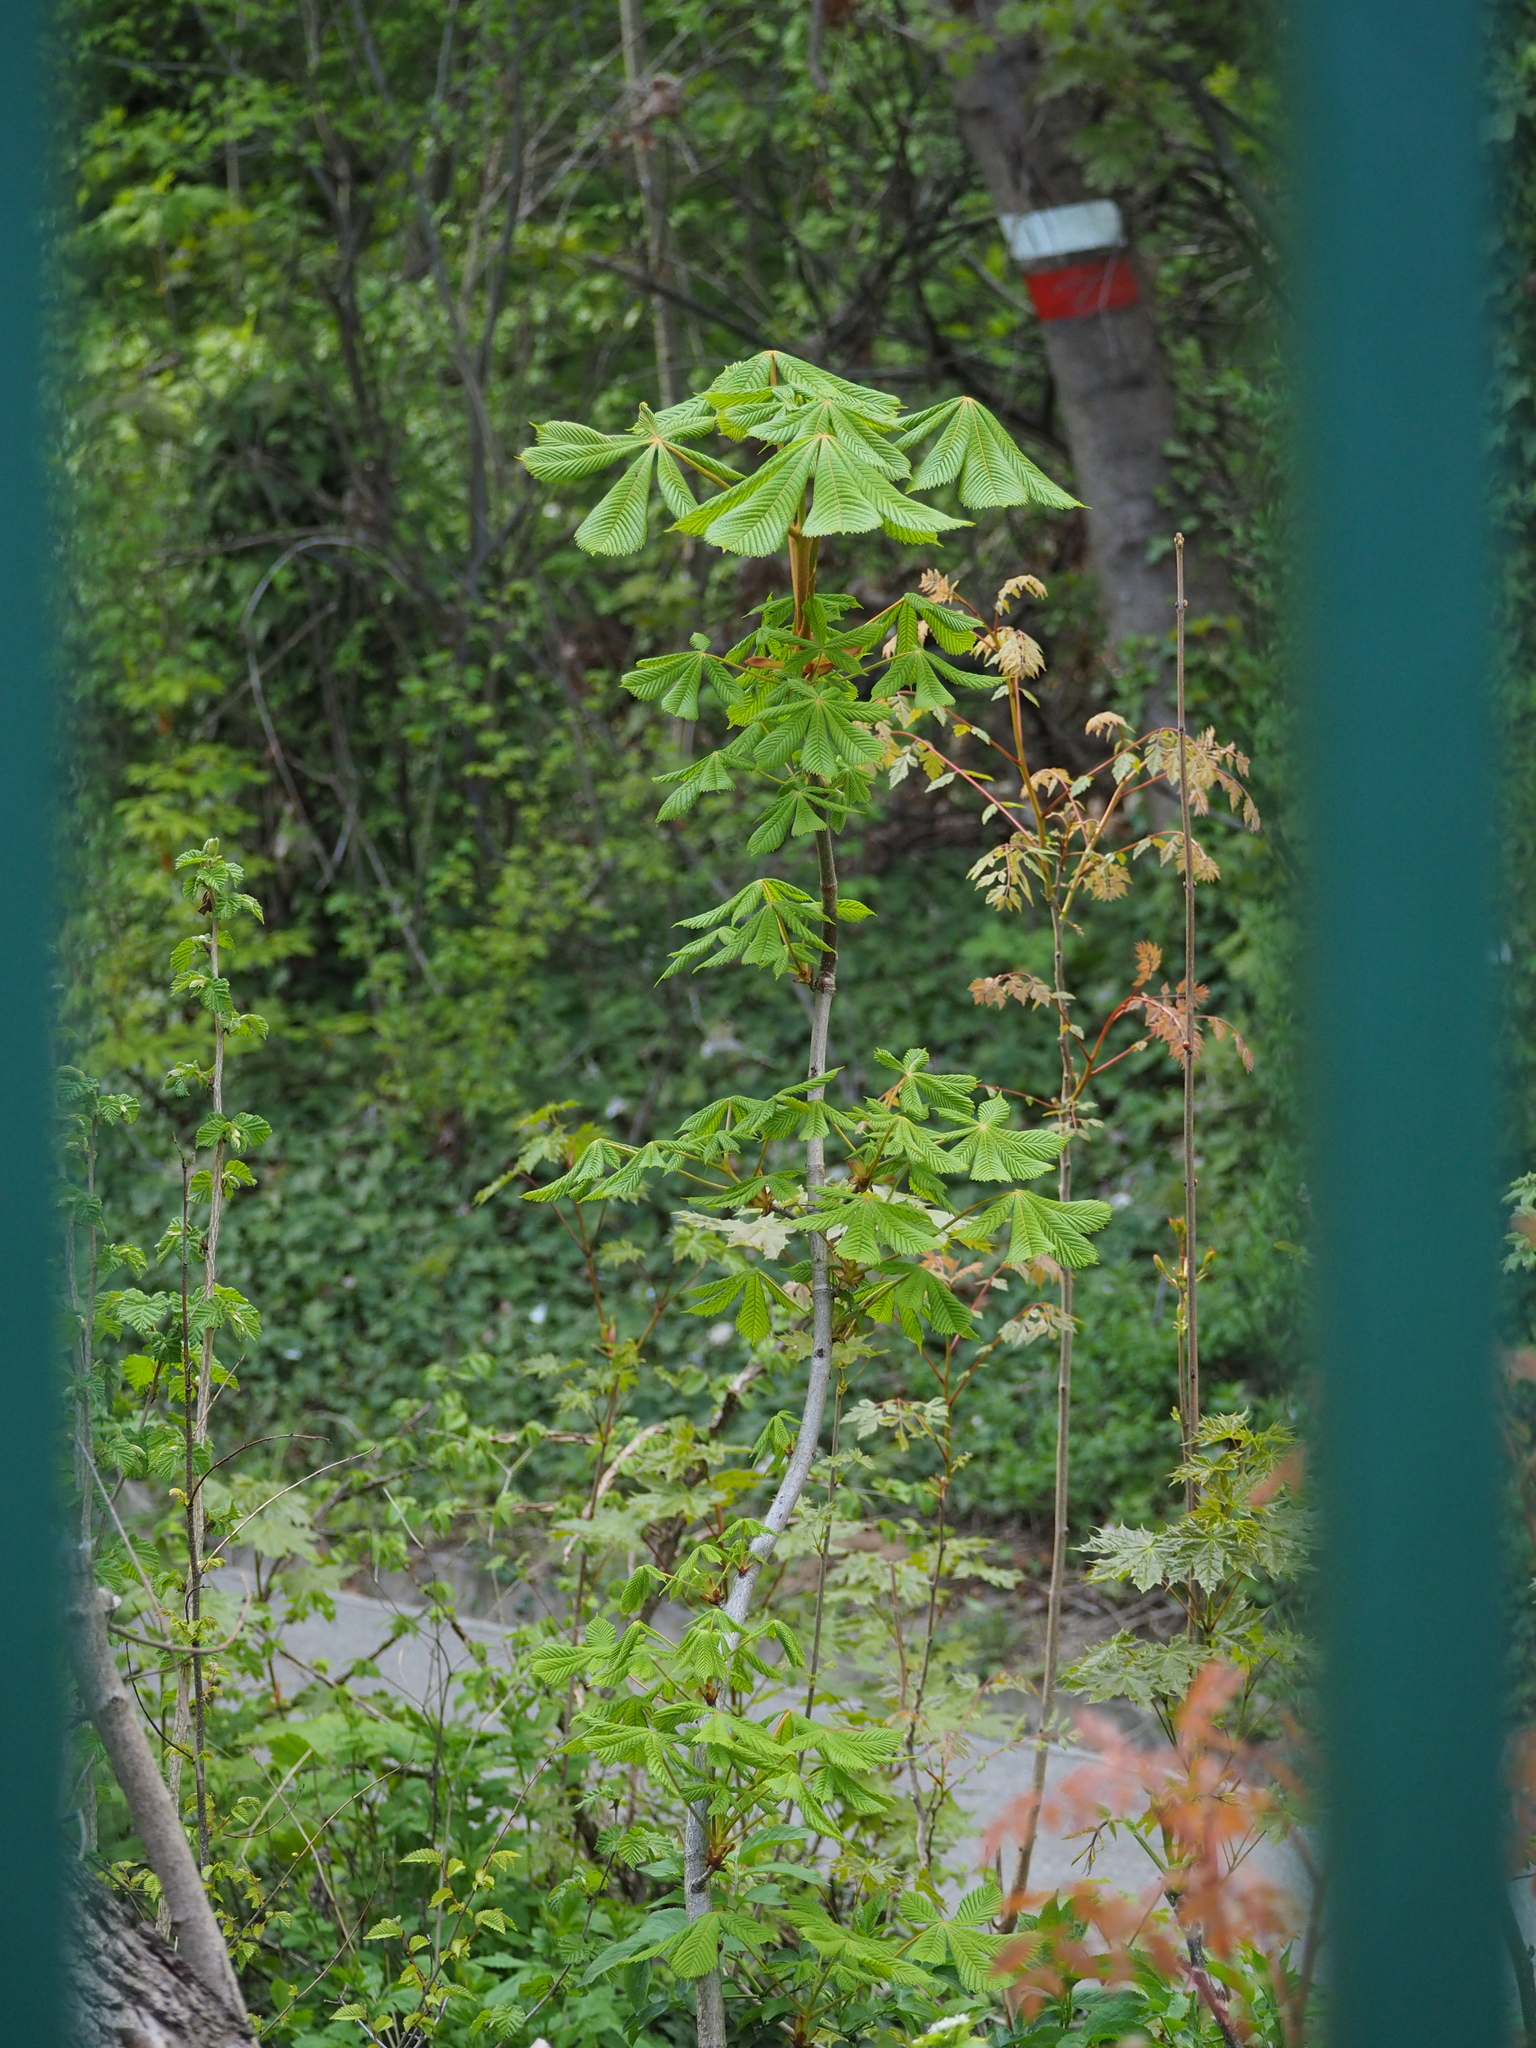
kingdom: Plantae
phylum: Tracheophyta
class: Magnoliopsida
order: Sapindales
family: Sapindaceae
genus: Aesculus
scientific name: Aesculus hippocastanum
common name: Horse-chestnut
